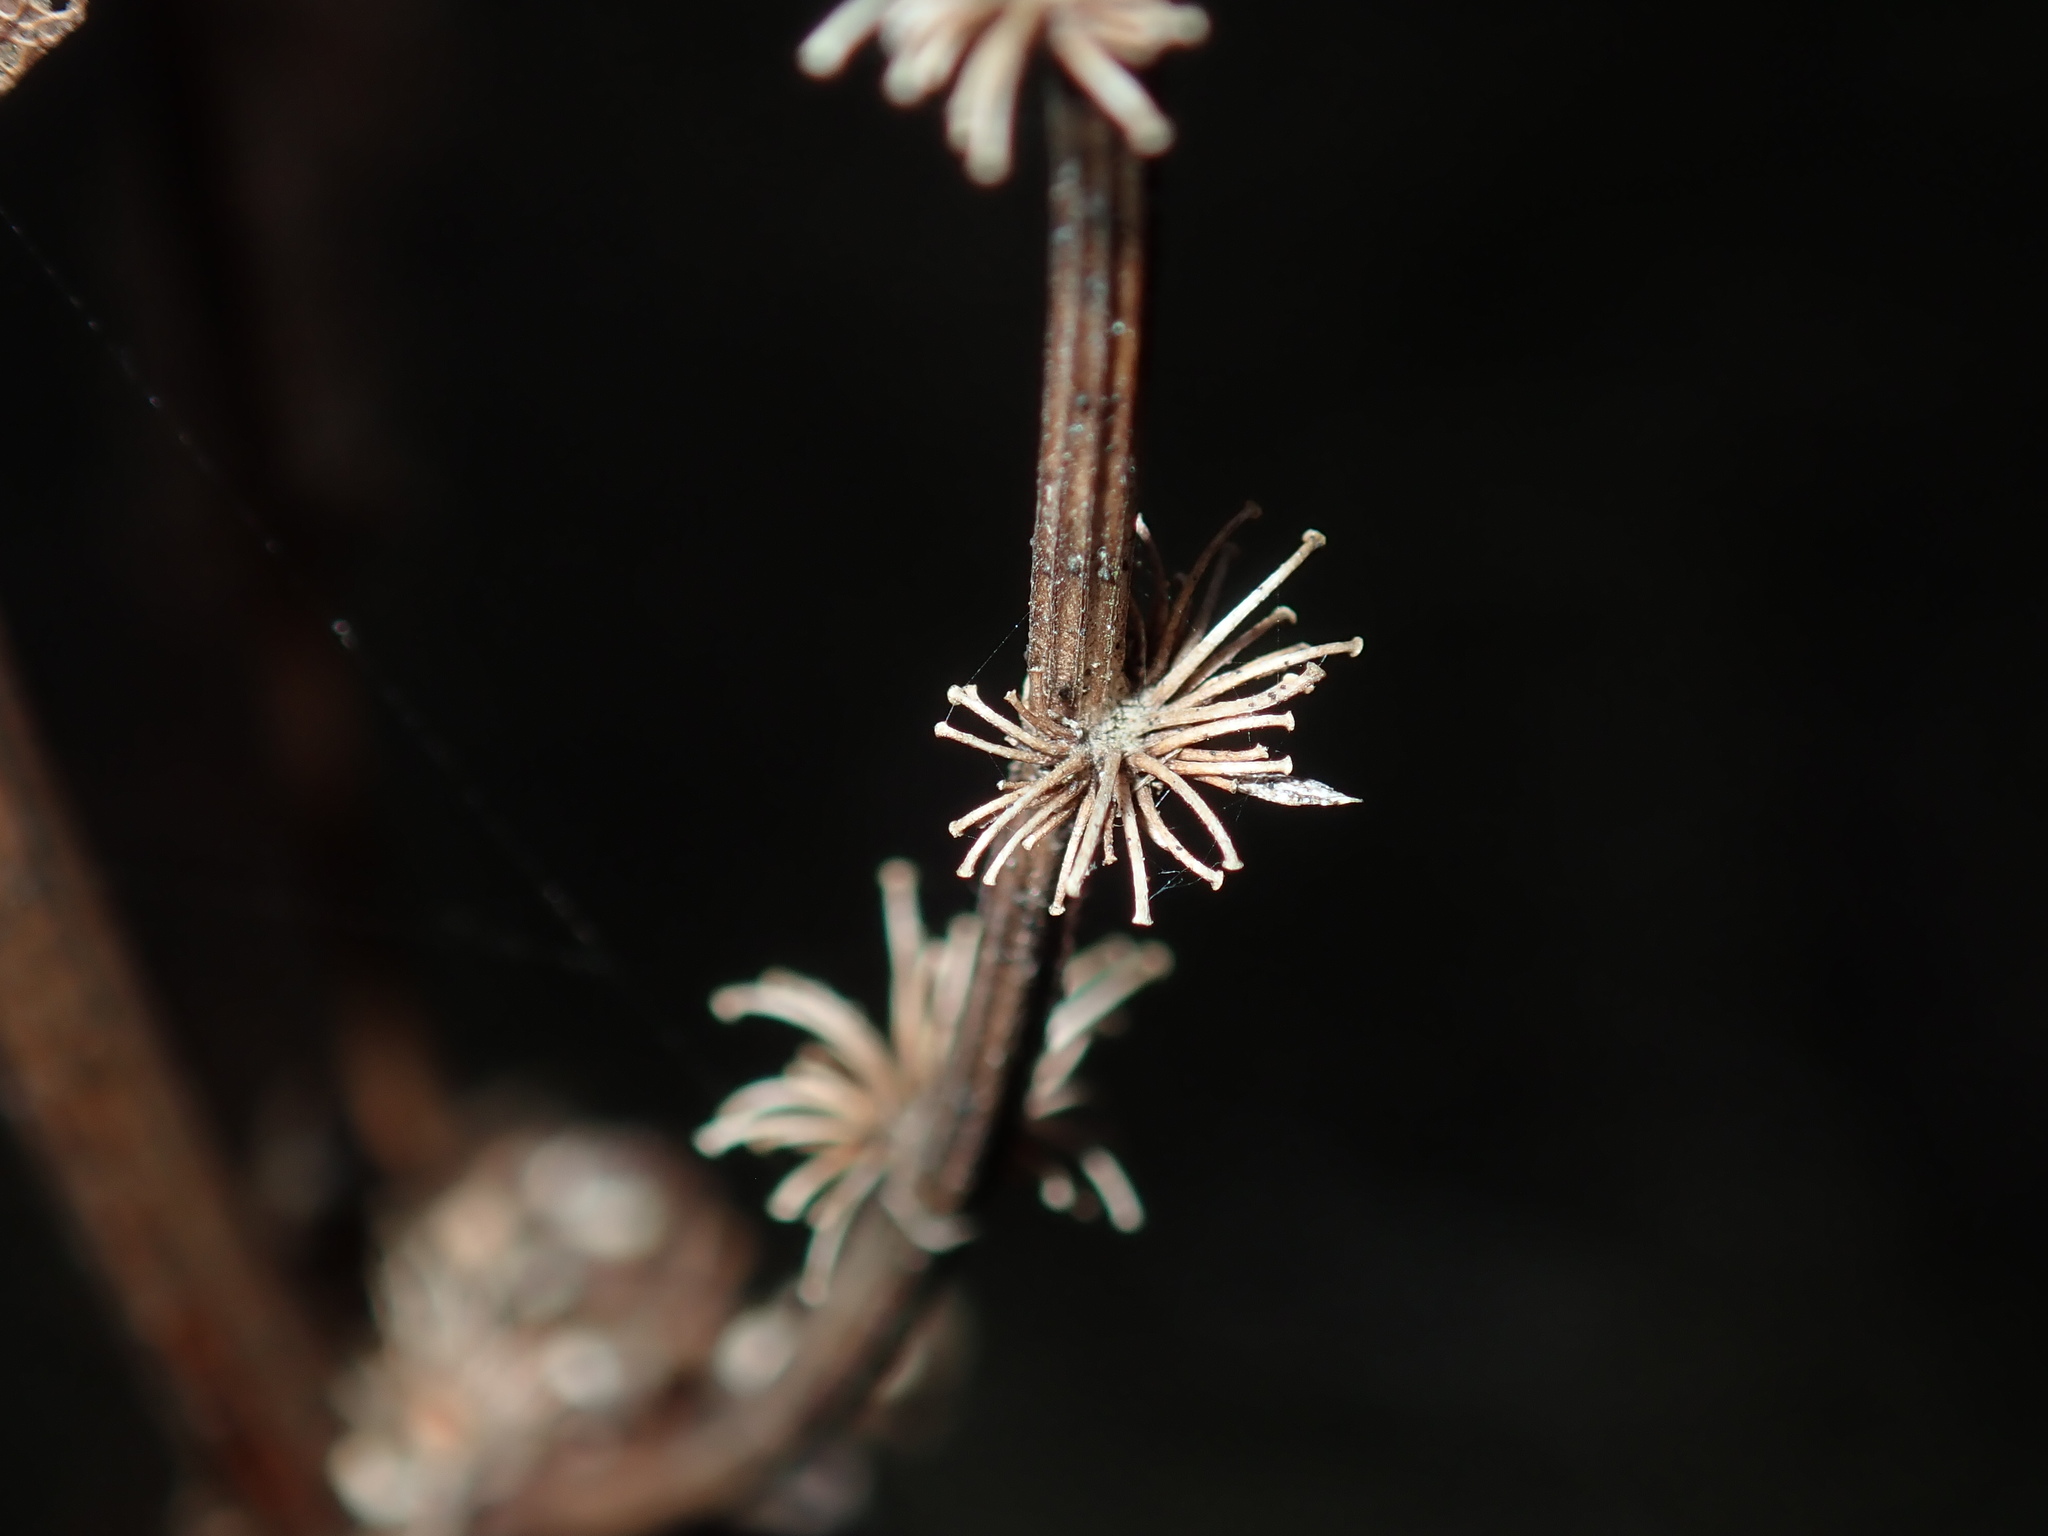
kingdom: Plantae
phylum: Tracheophyta
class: Magnoliopsida
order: Caryophyllales
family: Polygonaceae
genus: Rumex
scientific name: Rumex crispus
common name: Curled dock
